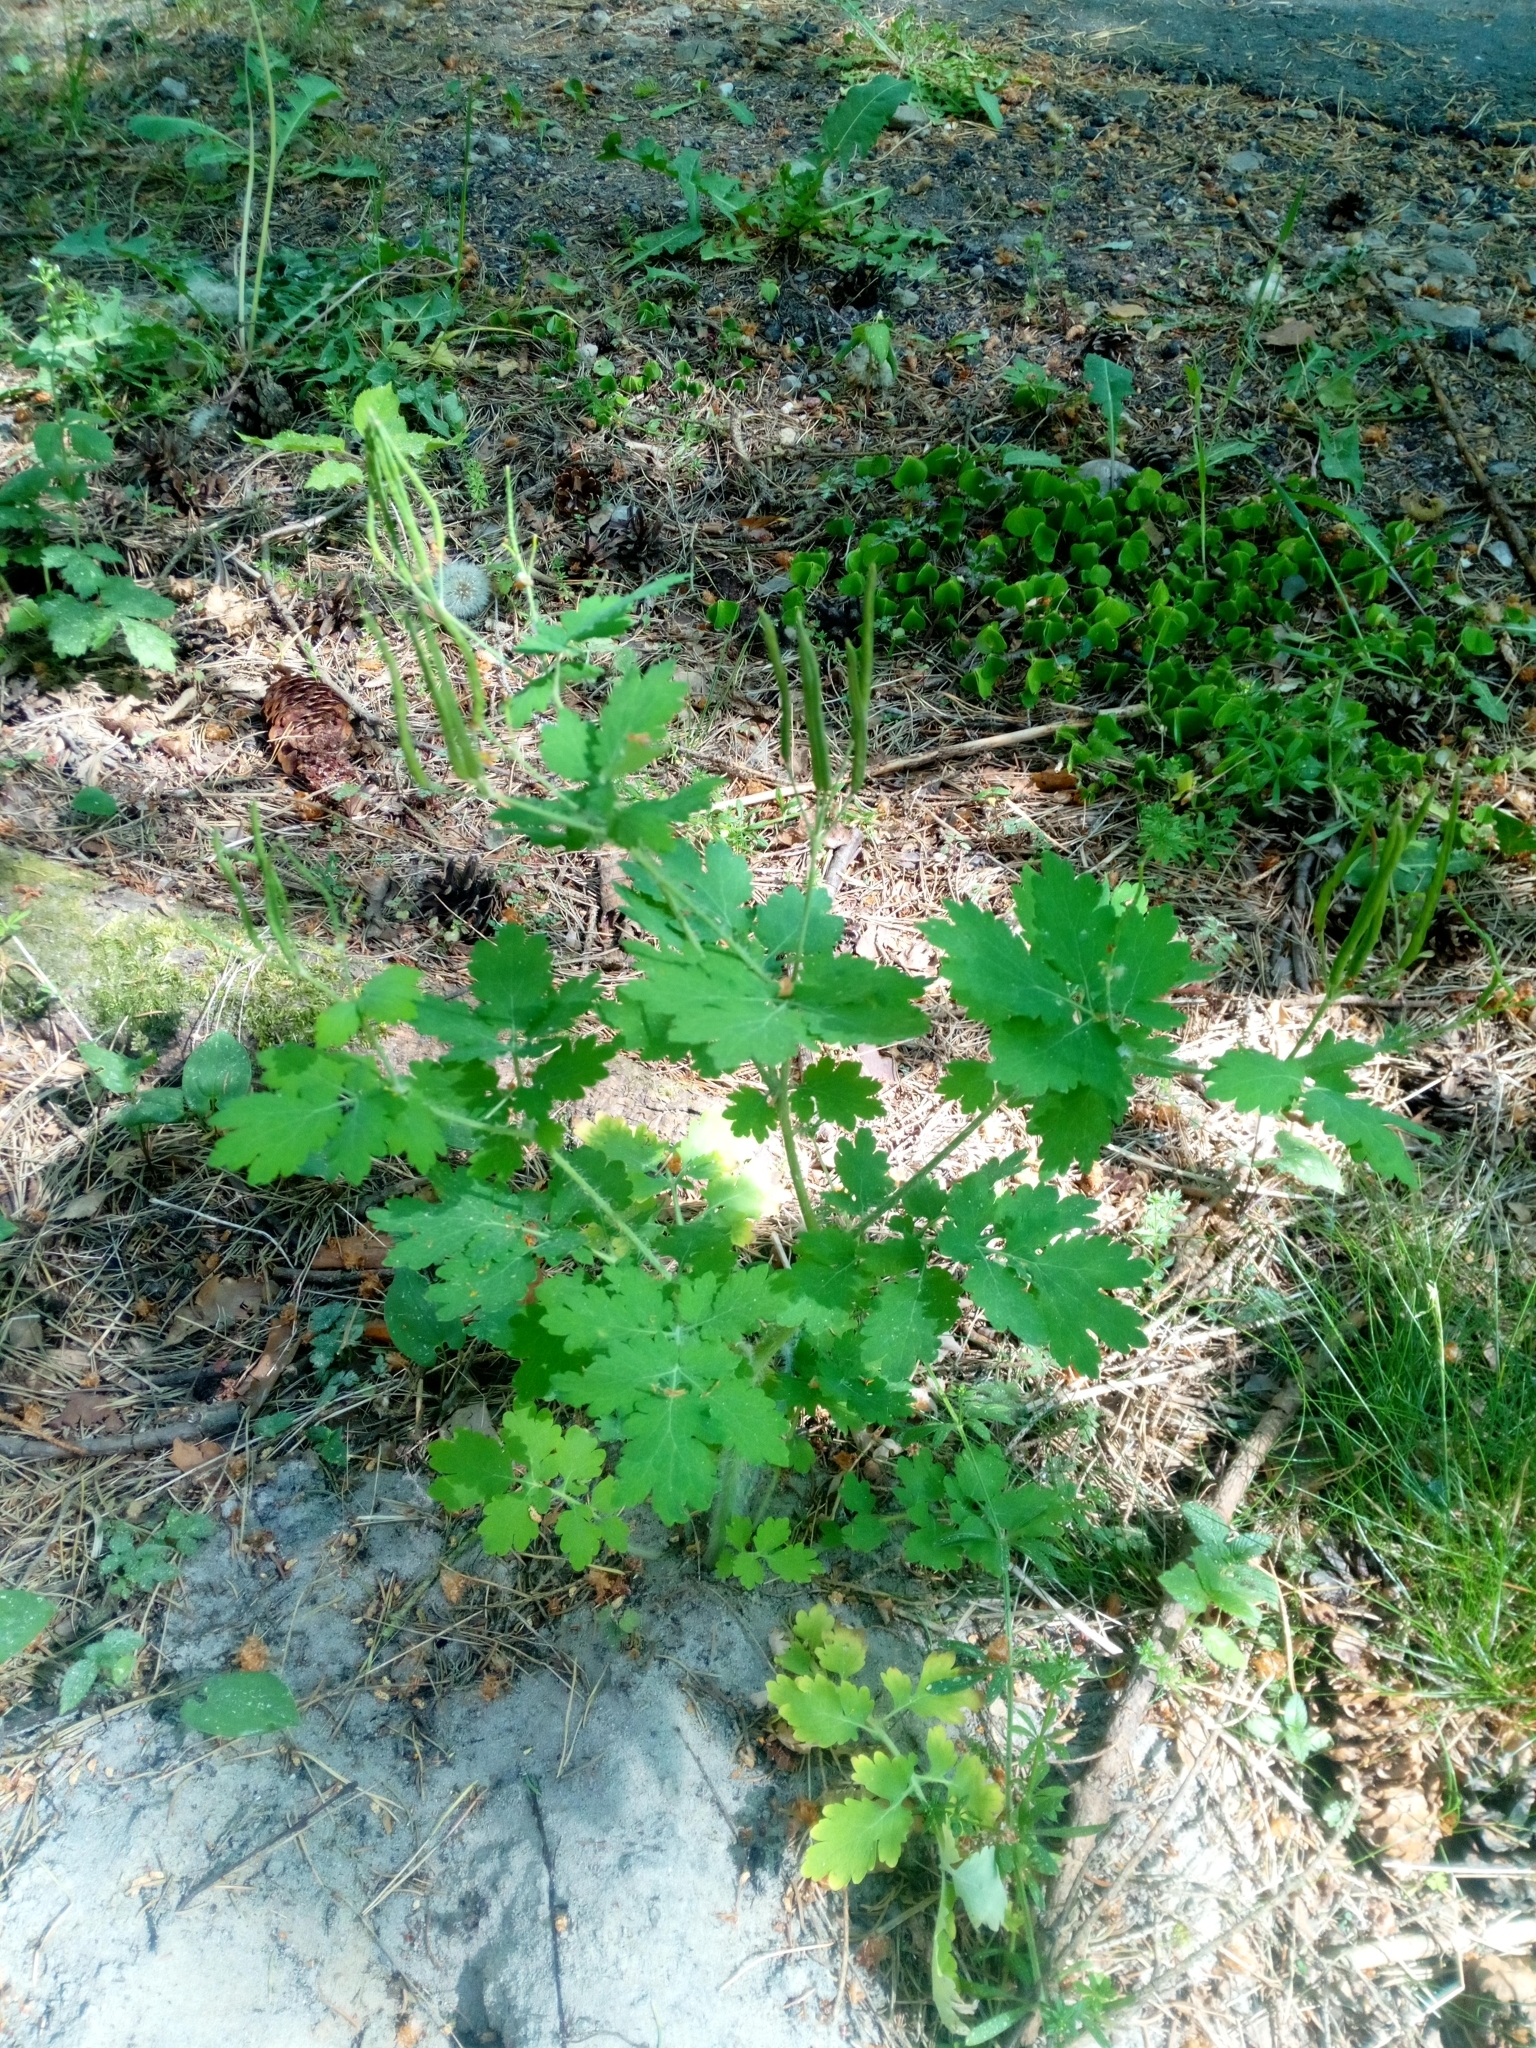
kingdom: Plantae
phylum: Tracheophyta
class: Magnoliopsida
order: Ranunculales
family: Papaveraceae
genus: Chelidonium
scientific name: Chelidonium majus
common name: Greater celandine
